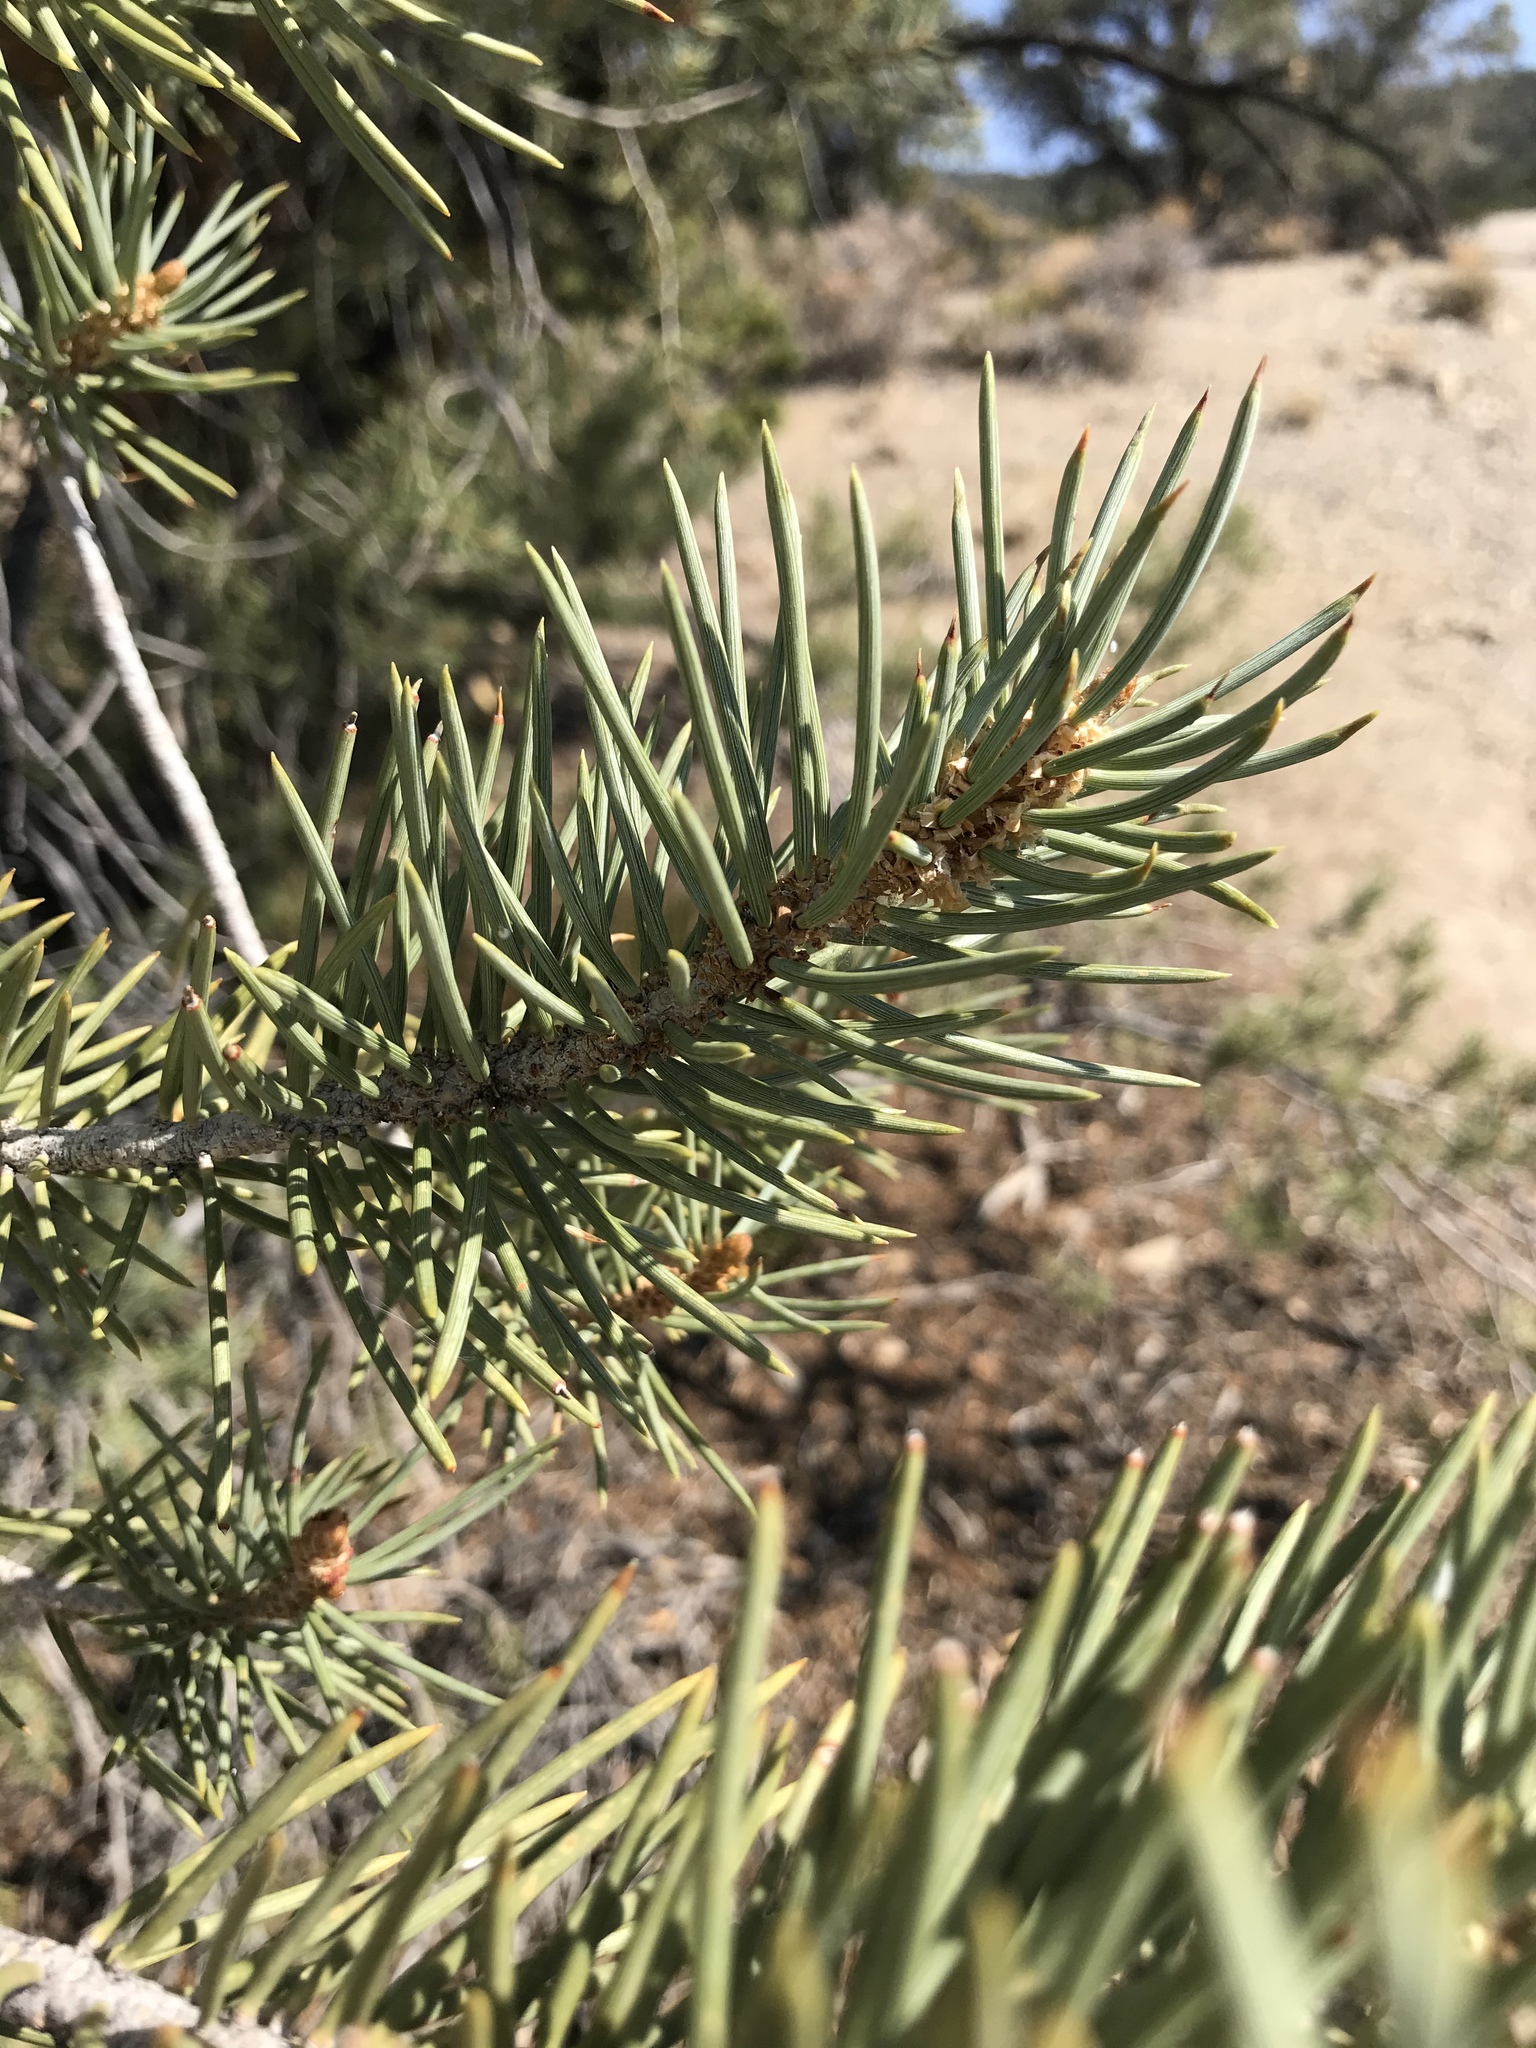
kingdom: Plantae
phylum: Tracheophyta
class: Pinopsida
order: Pinales
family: Pinaceae
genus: Pinus
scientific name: Pinus monophylla
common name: One-leaved nut pine
